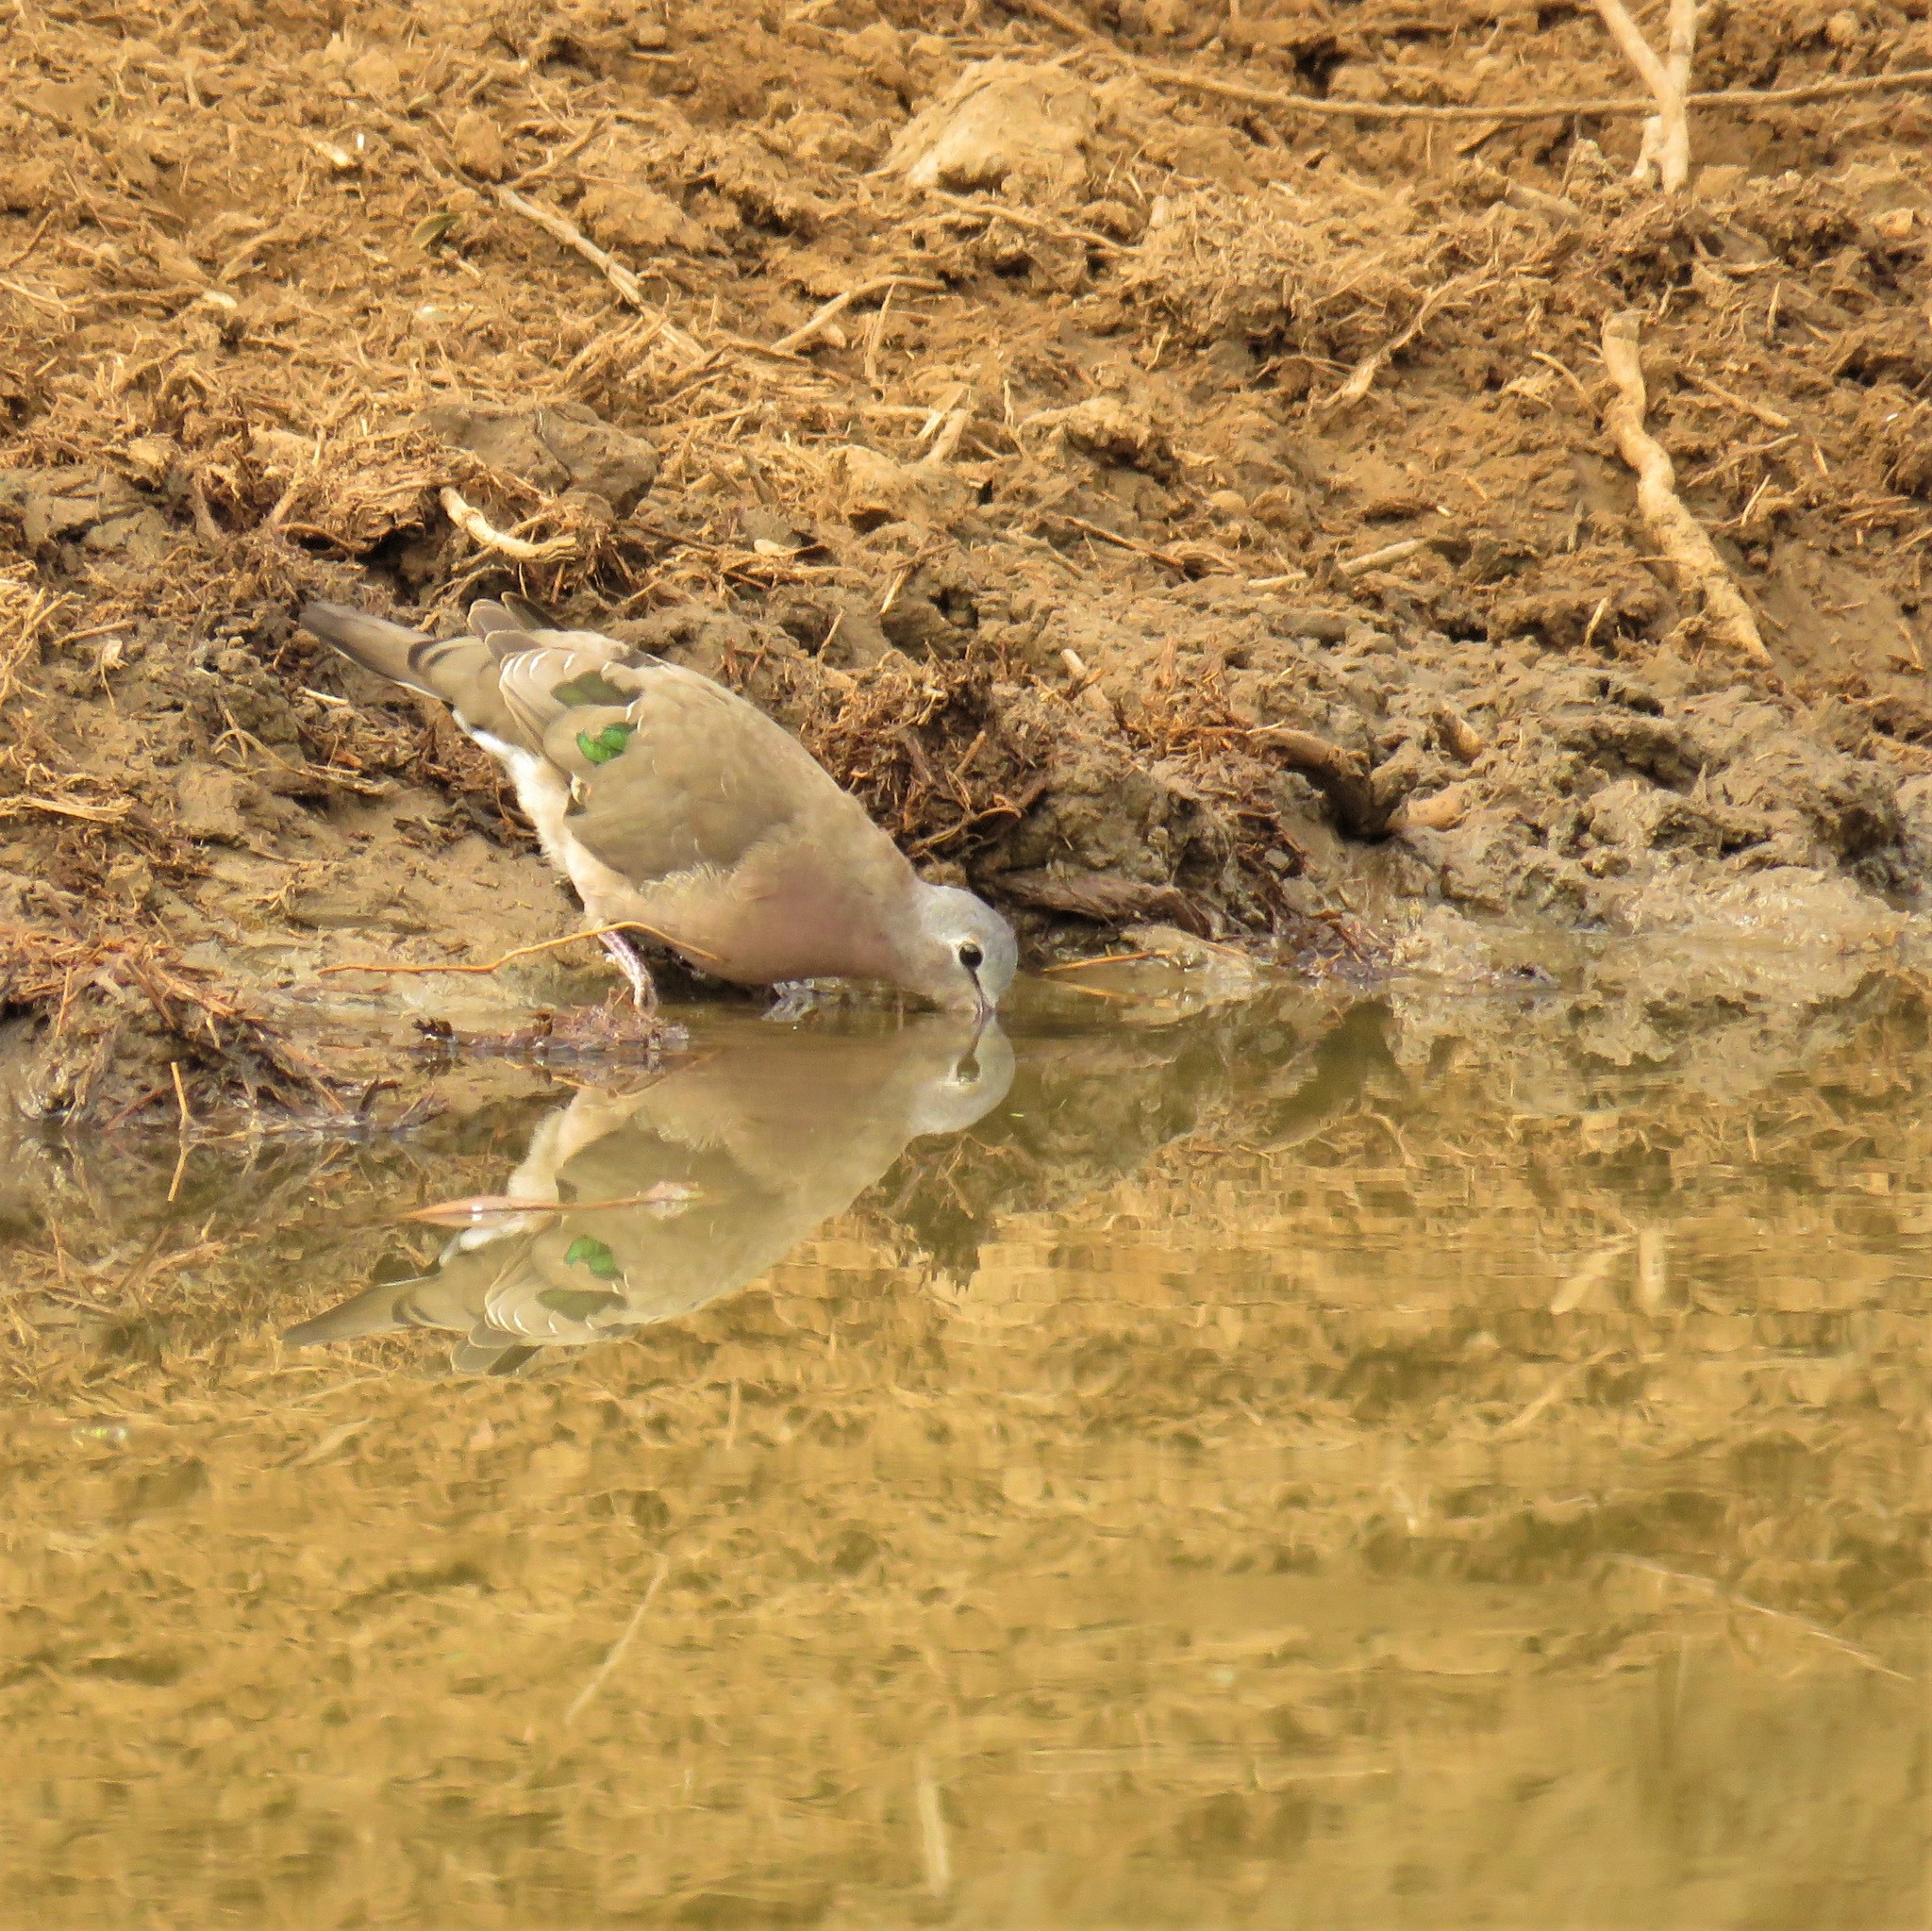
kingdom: Animalia
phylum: Chordata
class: Aves
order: Columbiformes
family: Columbidae
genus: Turtur
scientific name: Turtur chalcospilos
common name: Emerald-spotted wood dove
